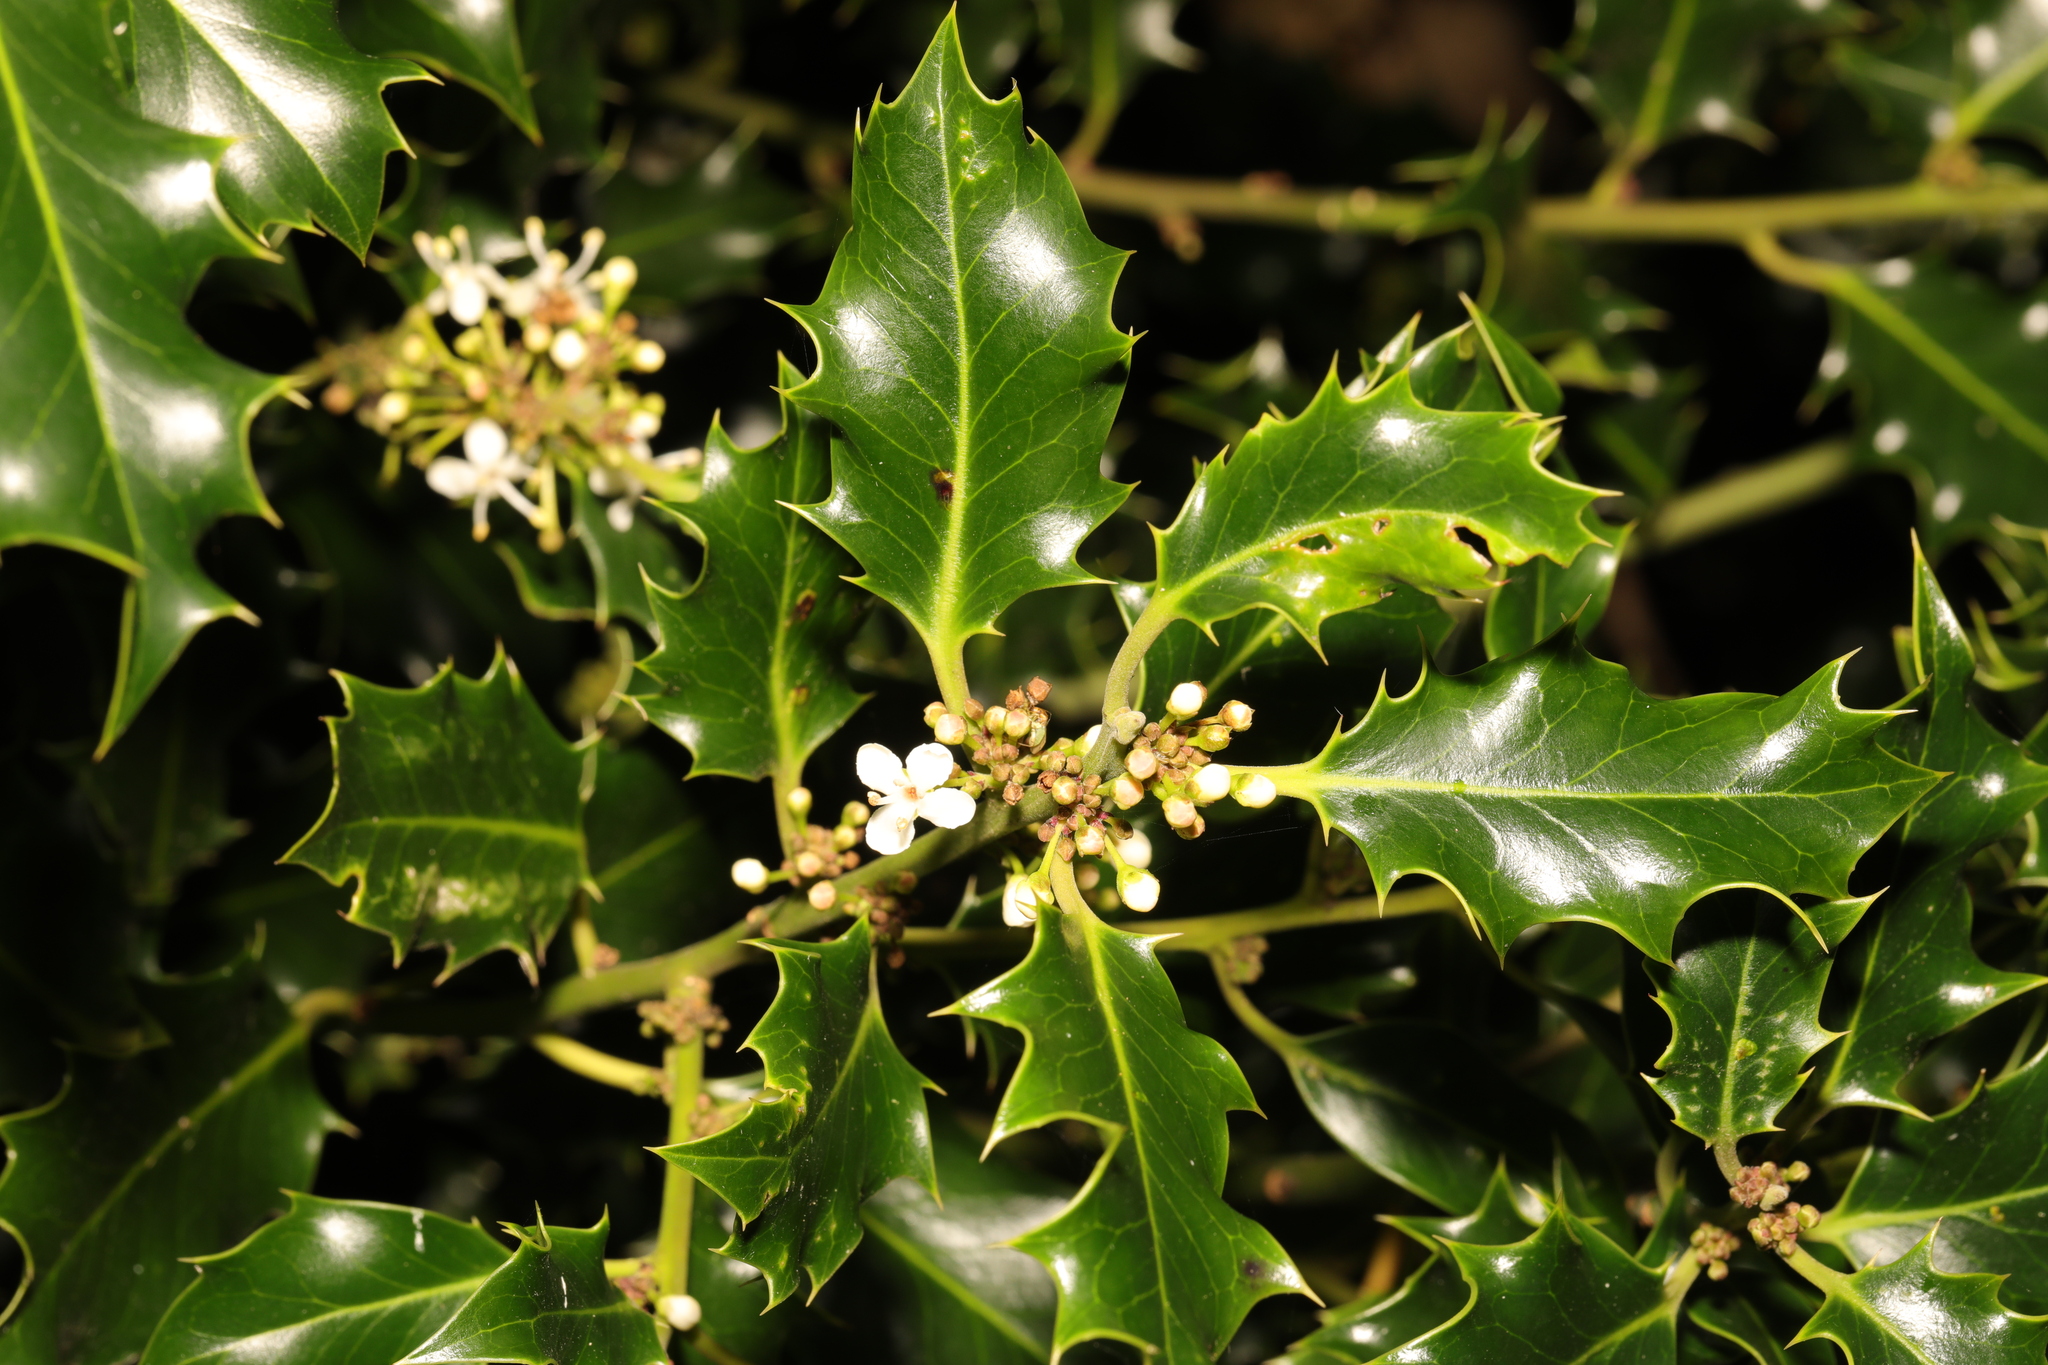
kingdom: Plantae
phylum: Tracheophyta
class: Magnoliopsida
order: Aquifoliales
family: Aquifoliaceae
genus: Ilex
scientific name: Ilex aquifolium
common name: English holly
